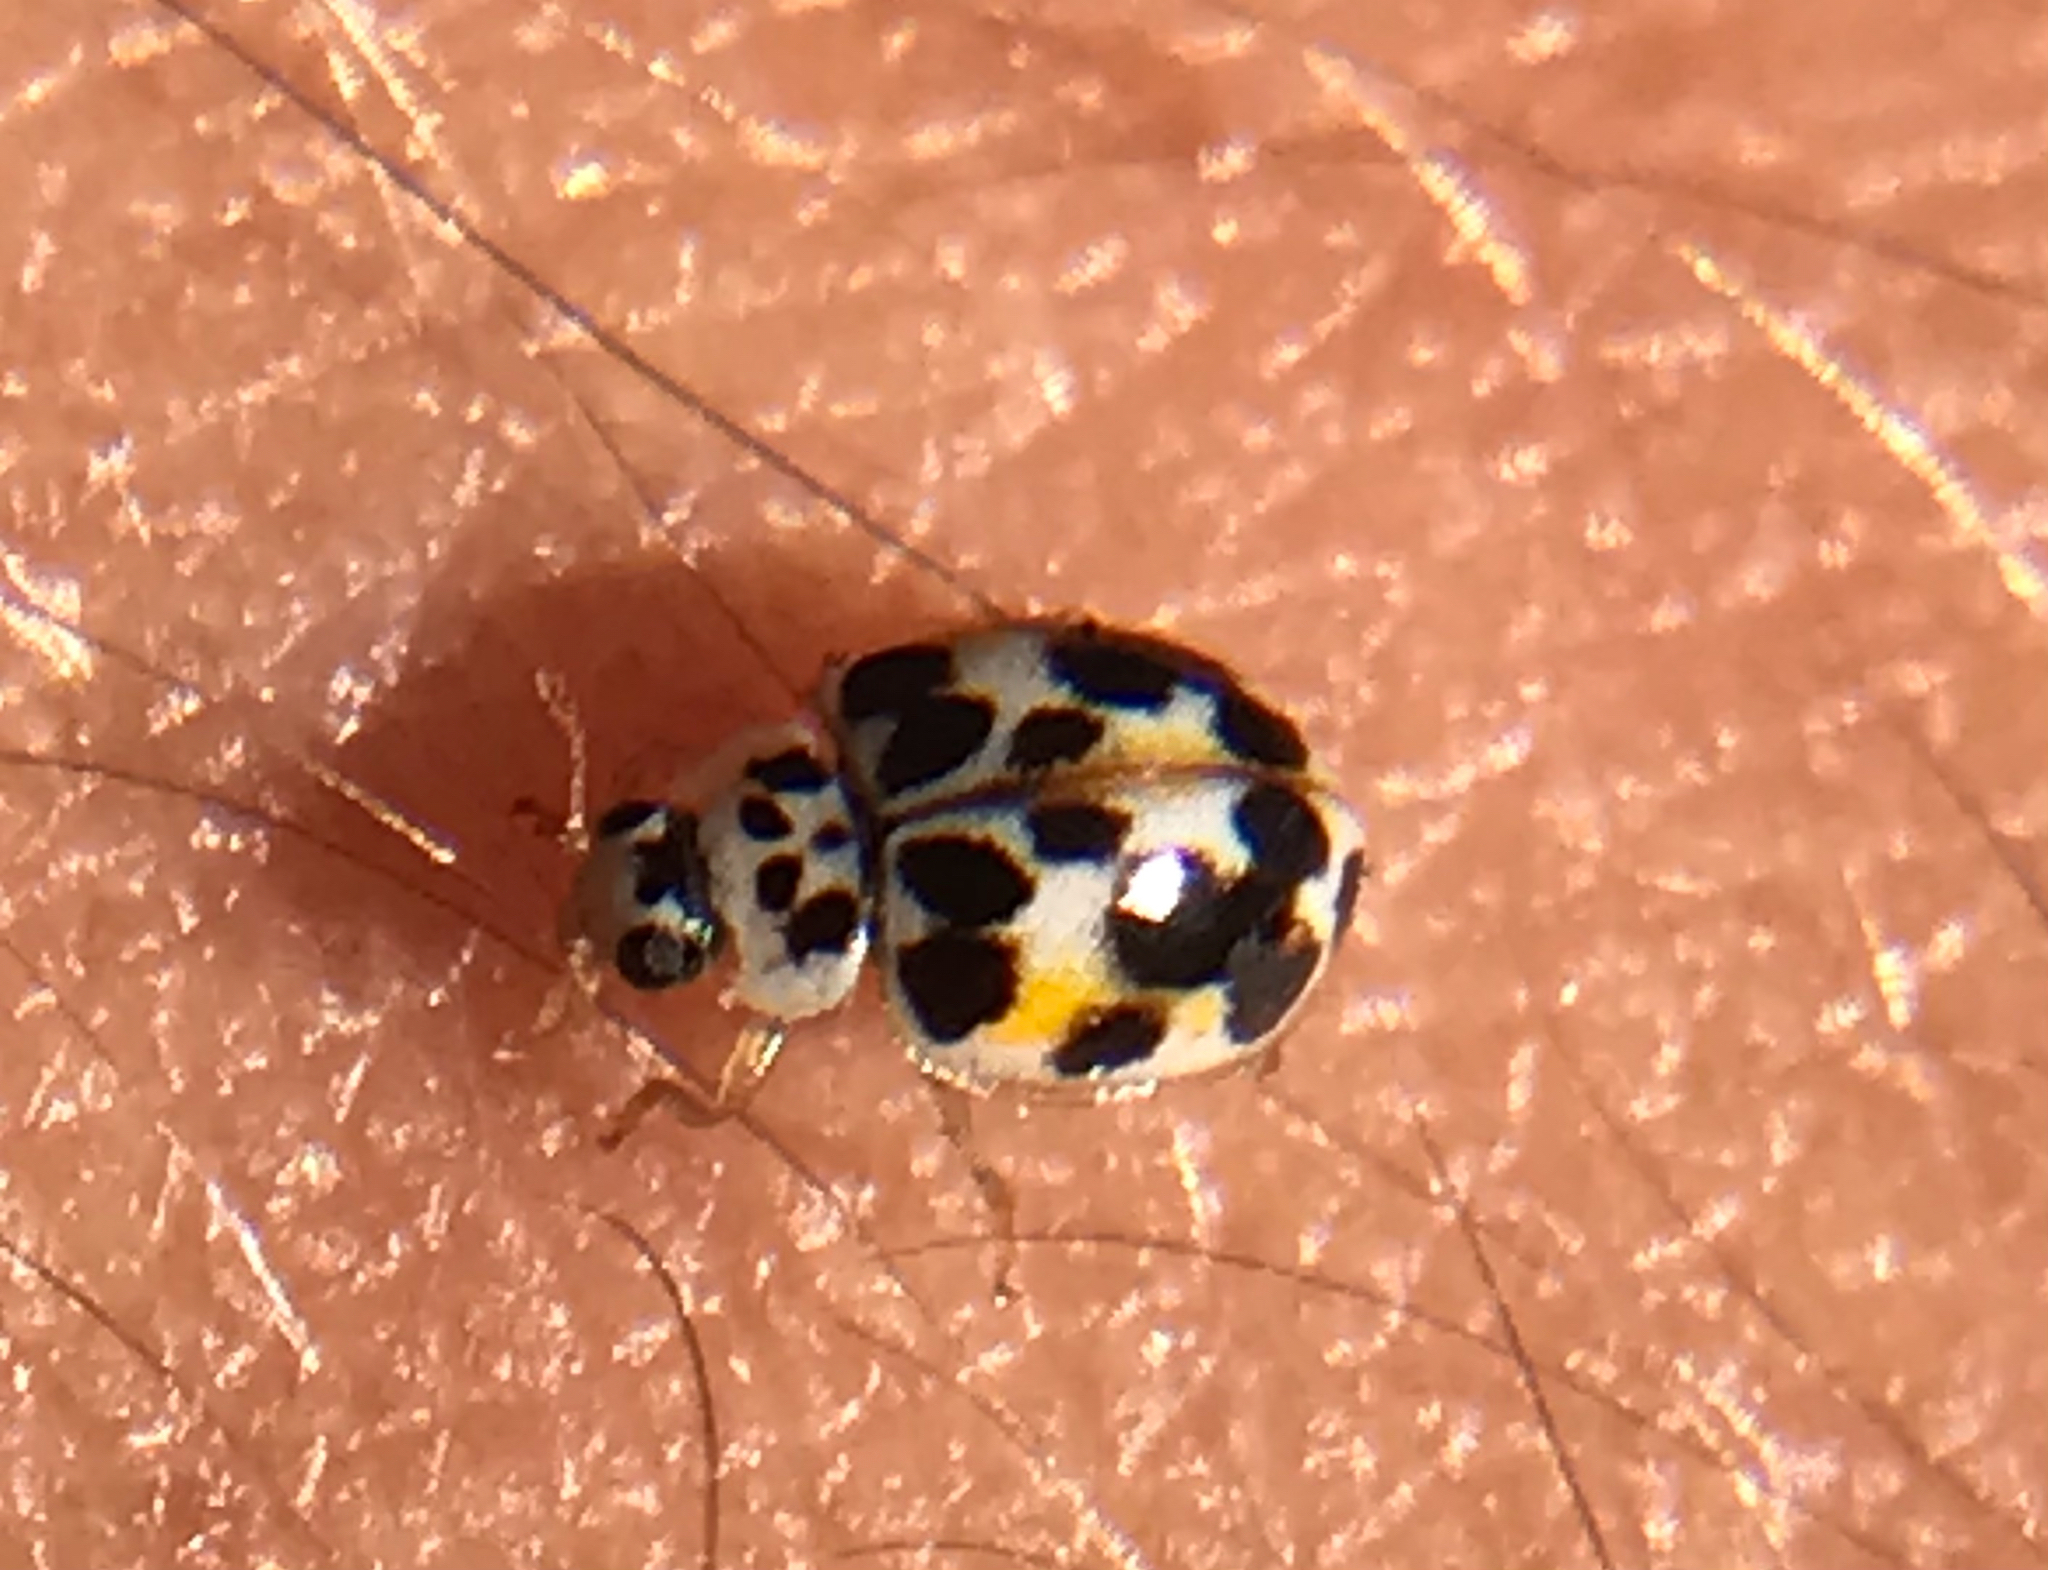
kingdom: Animalia
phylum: Arthropoda
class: Insecta
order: Coleoptera
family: Coccinellidae
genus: Psyllobora
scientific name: Psyllobora vigintimaculata
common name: Ladybird beetle
